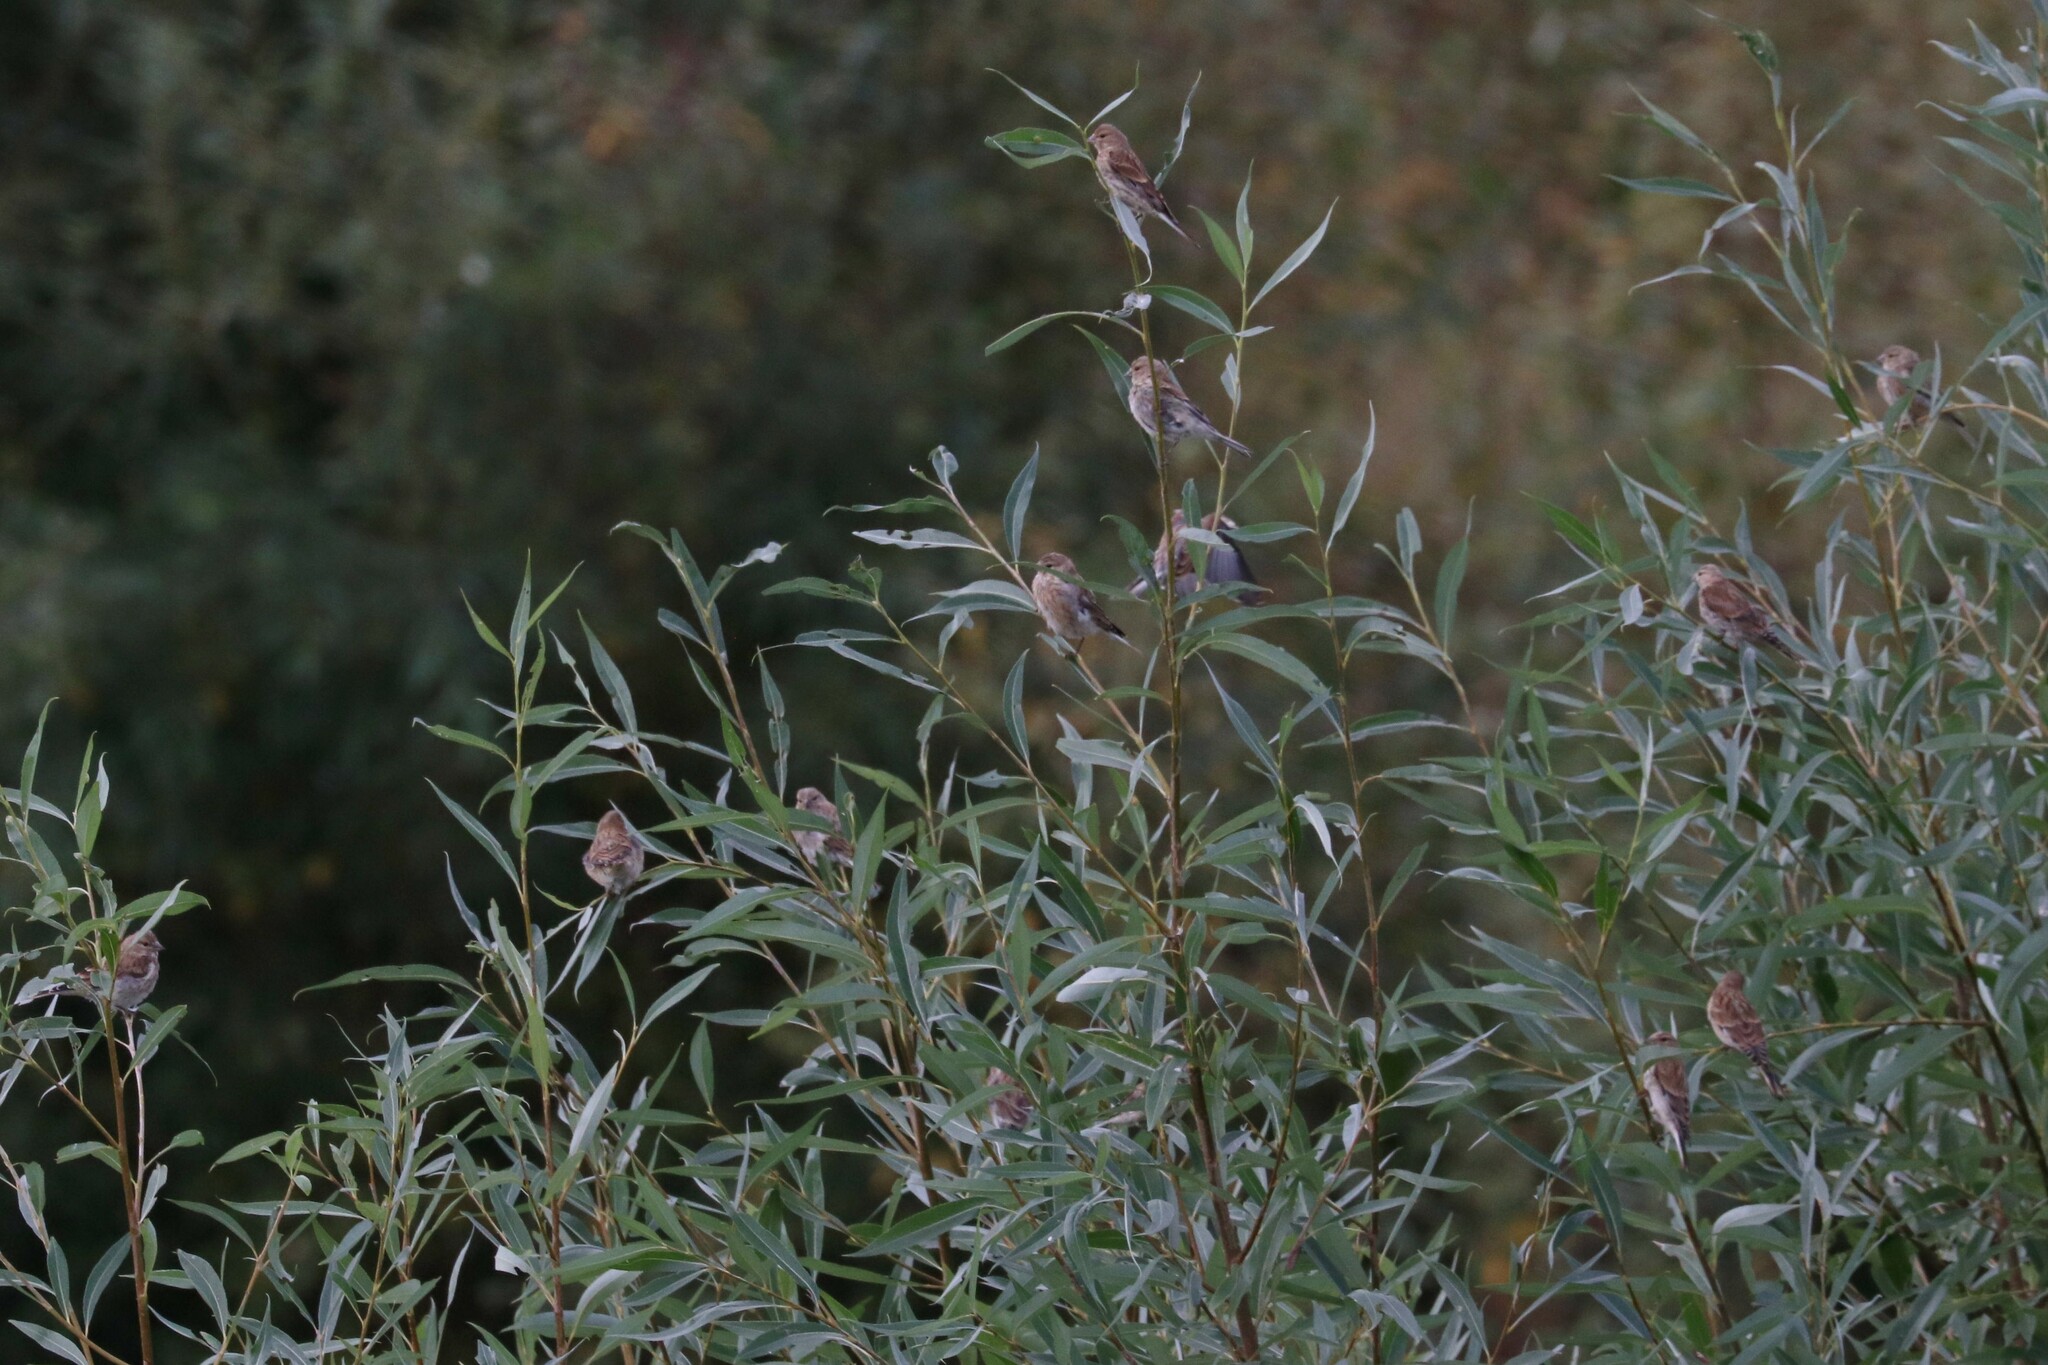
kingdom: Animalia
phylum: Chordata
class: Aves
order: Passeriformes
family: Fringillidae
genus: Linaria
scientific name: Linaria cannabina
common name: Common linnet
